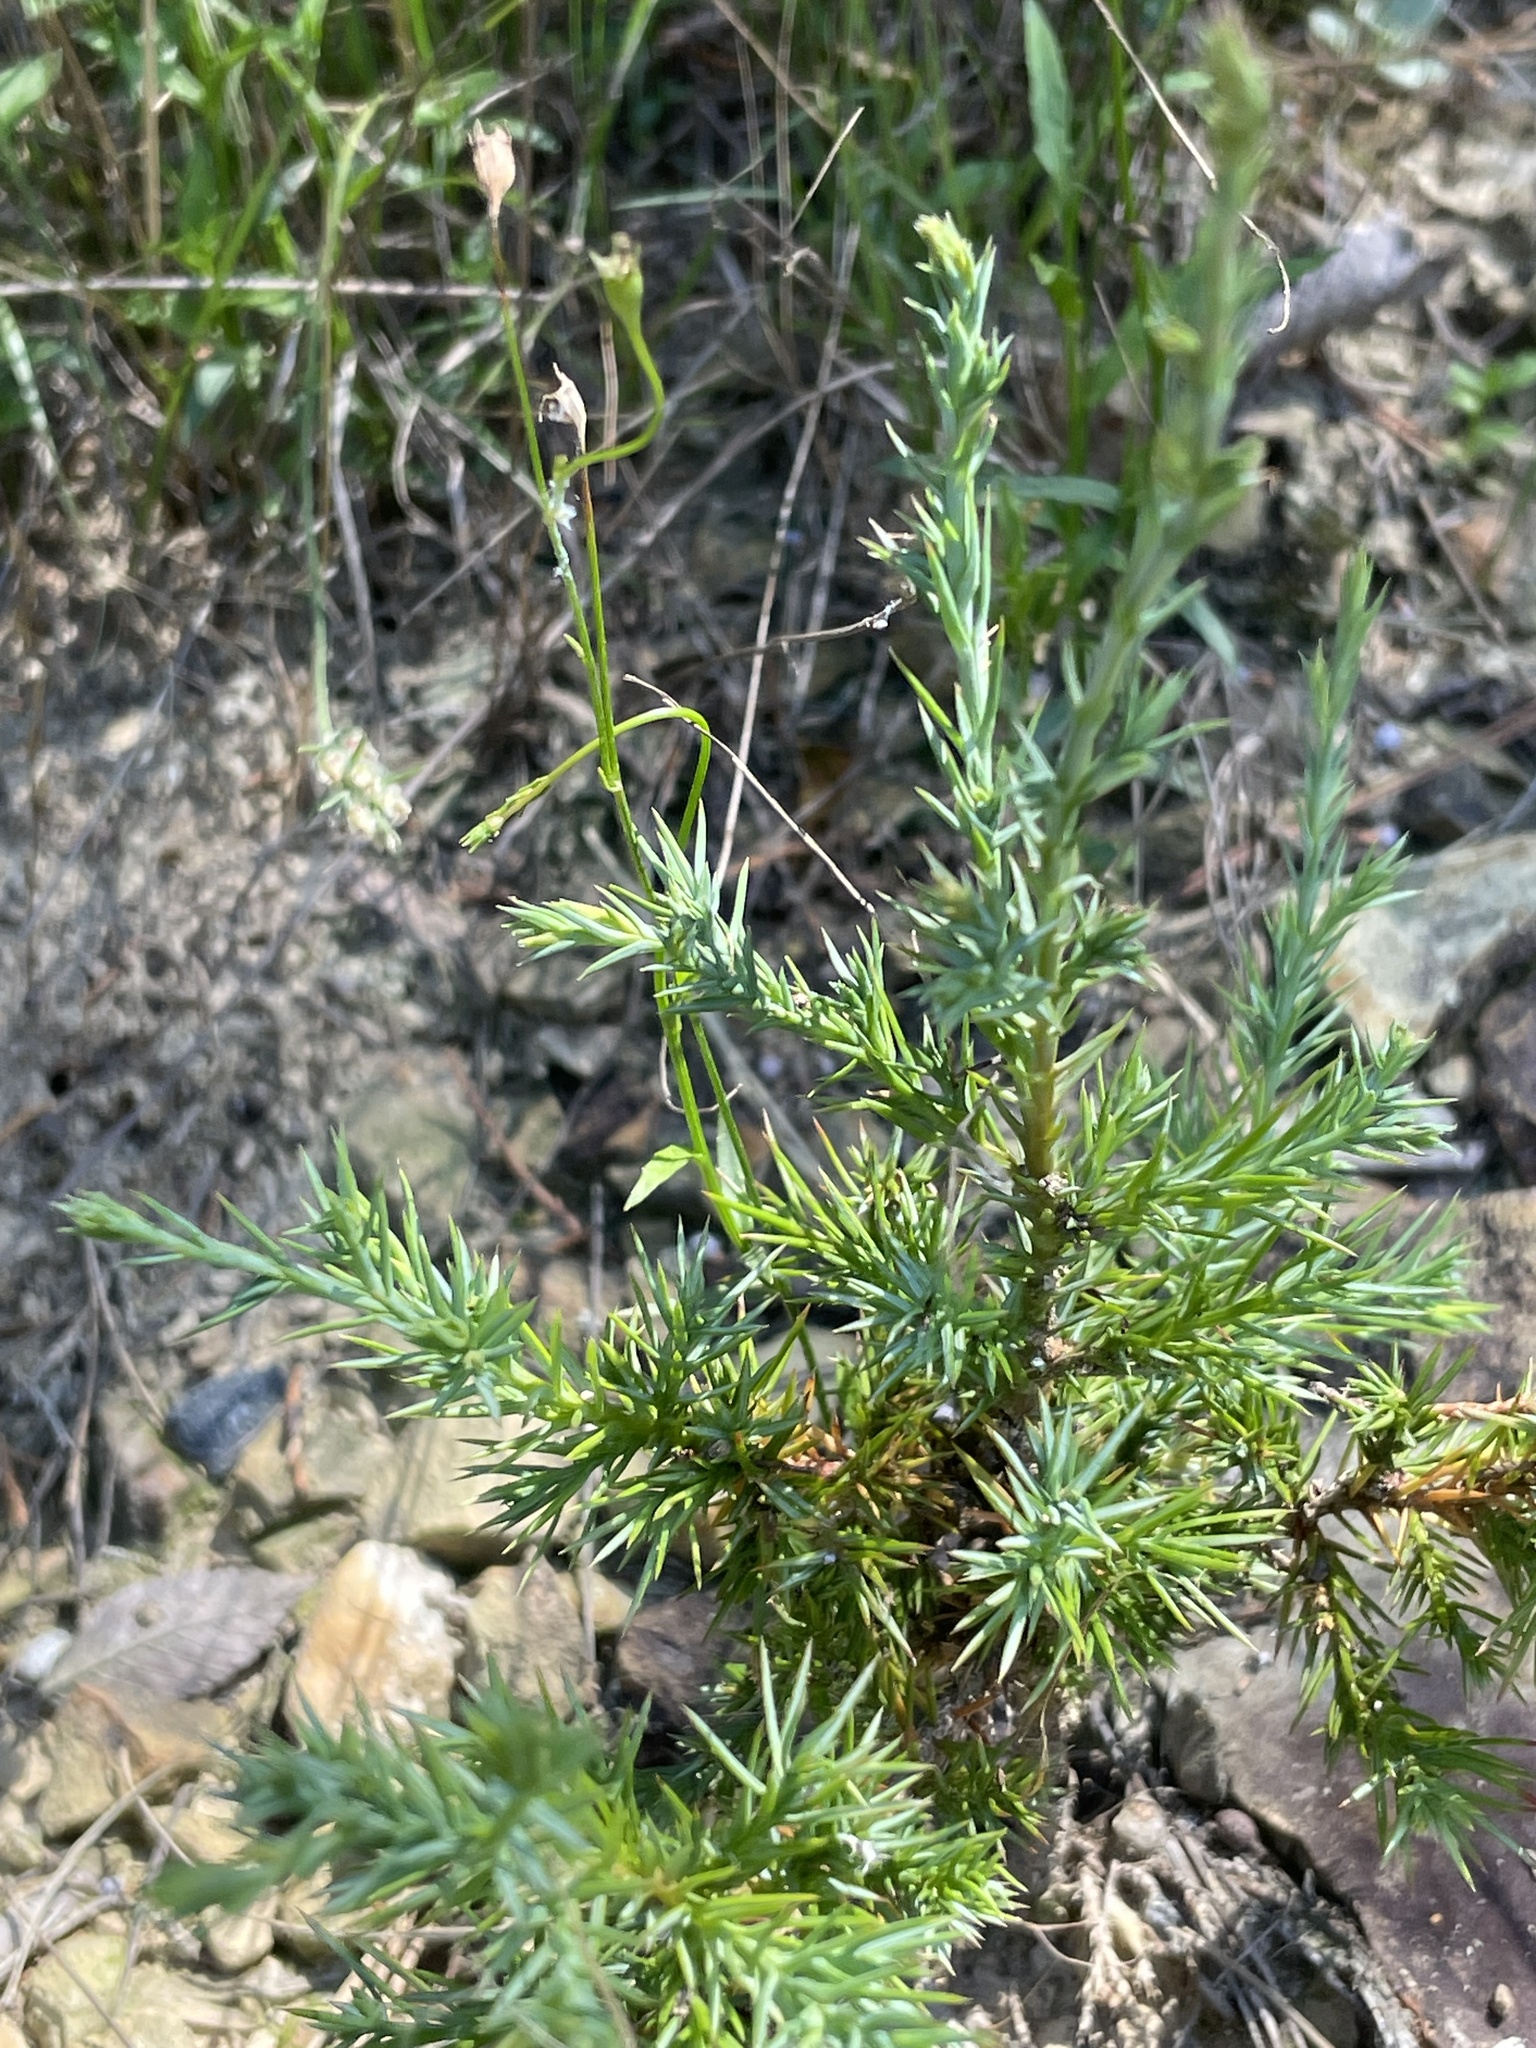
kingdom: Plantae
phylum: Tracheophyta
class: Pinopsida
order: Pinales
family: Cupressaceae
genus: Juniperus
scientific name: Juniperus virginiana
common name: Red juniper
